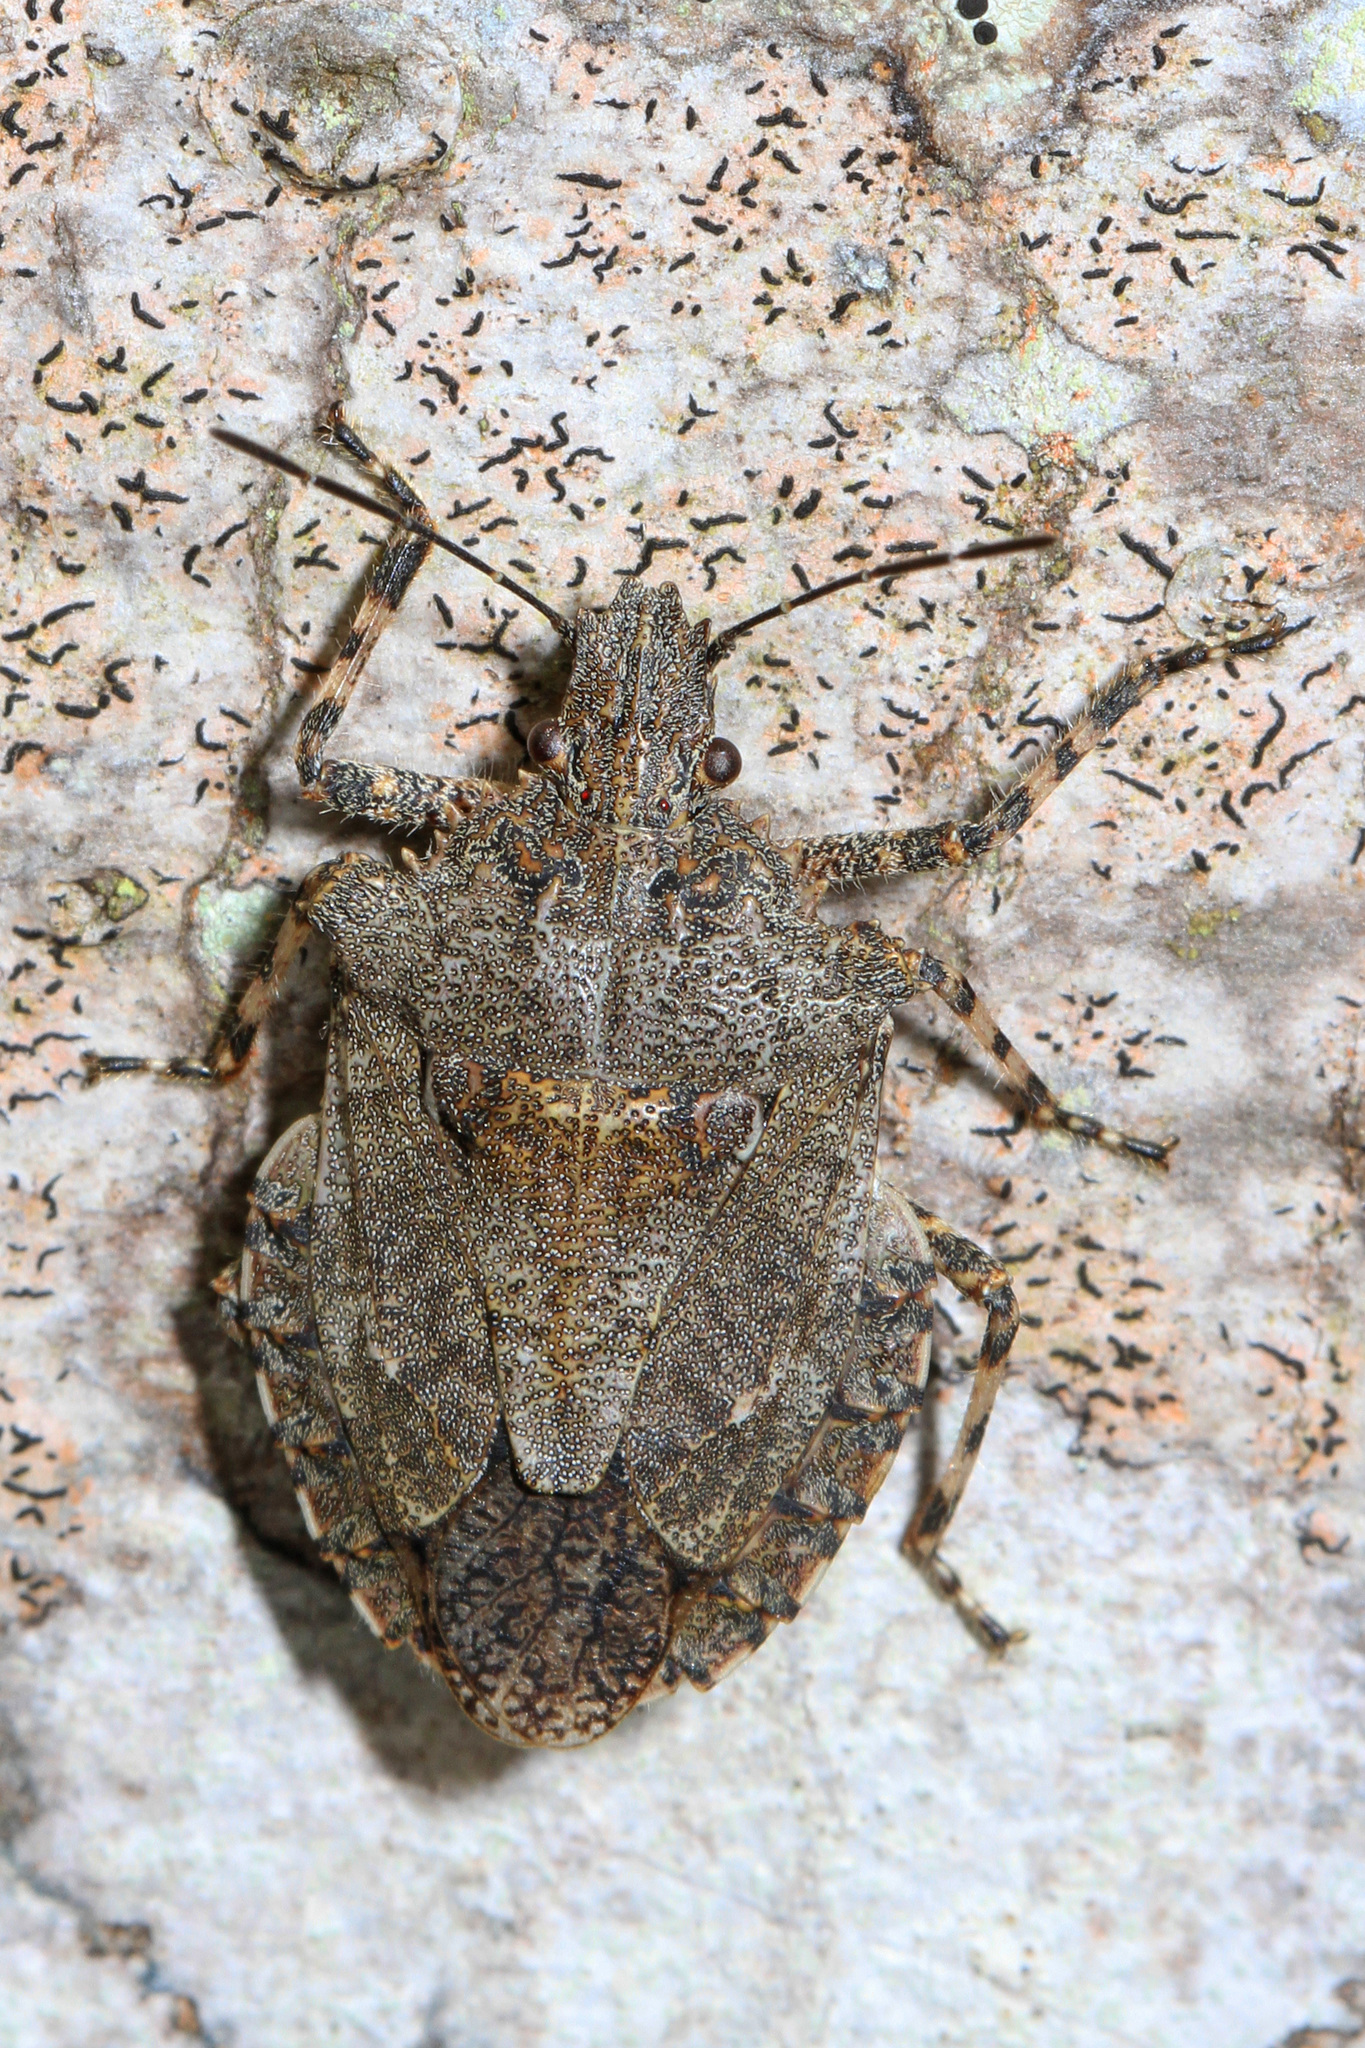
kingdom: Animalia
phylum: Arthropoda
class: Insecta
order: Hemiptera
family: Pentatomidae
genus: Brochymena
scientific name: Brochymena arborea
